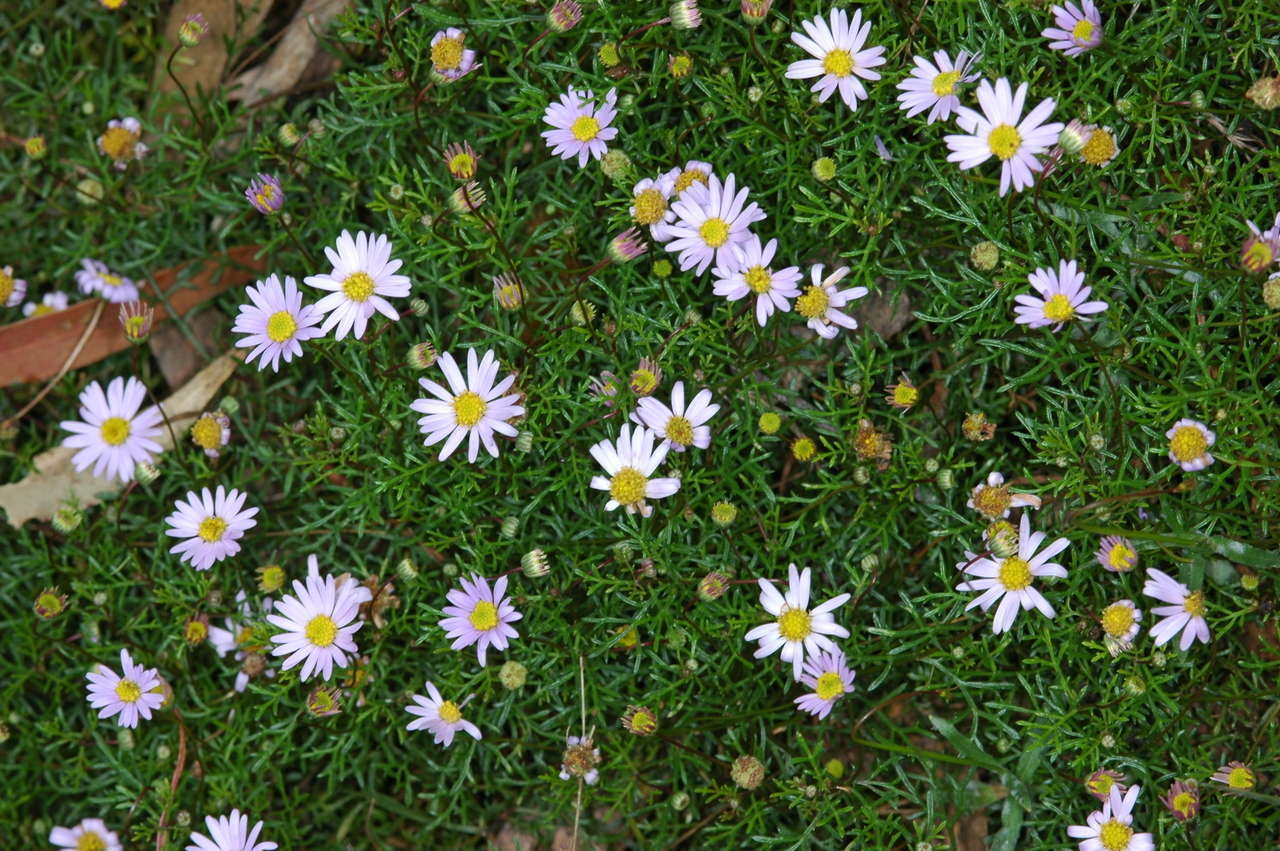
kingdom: Plantae
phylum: Tracheophyta
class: Magnoliopsida
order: Asterales
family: Asteraceae
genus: Brachyscome
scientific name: Brachyscome multifida
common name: Cut-leaf daisy
